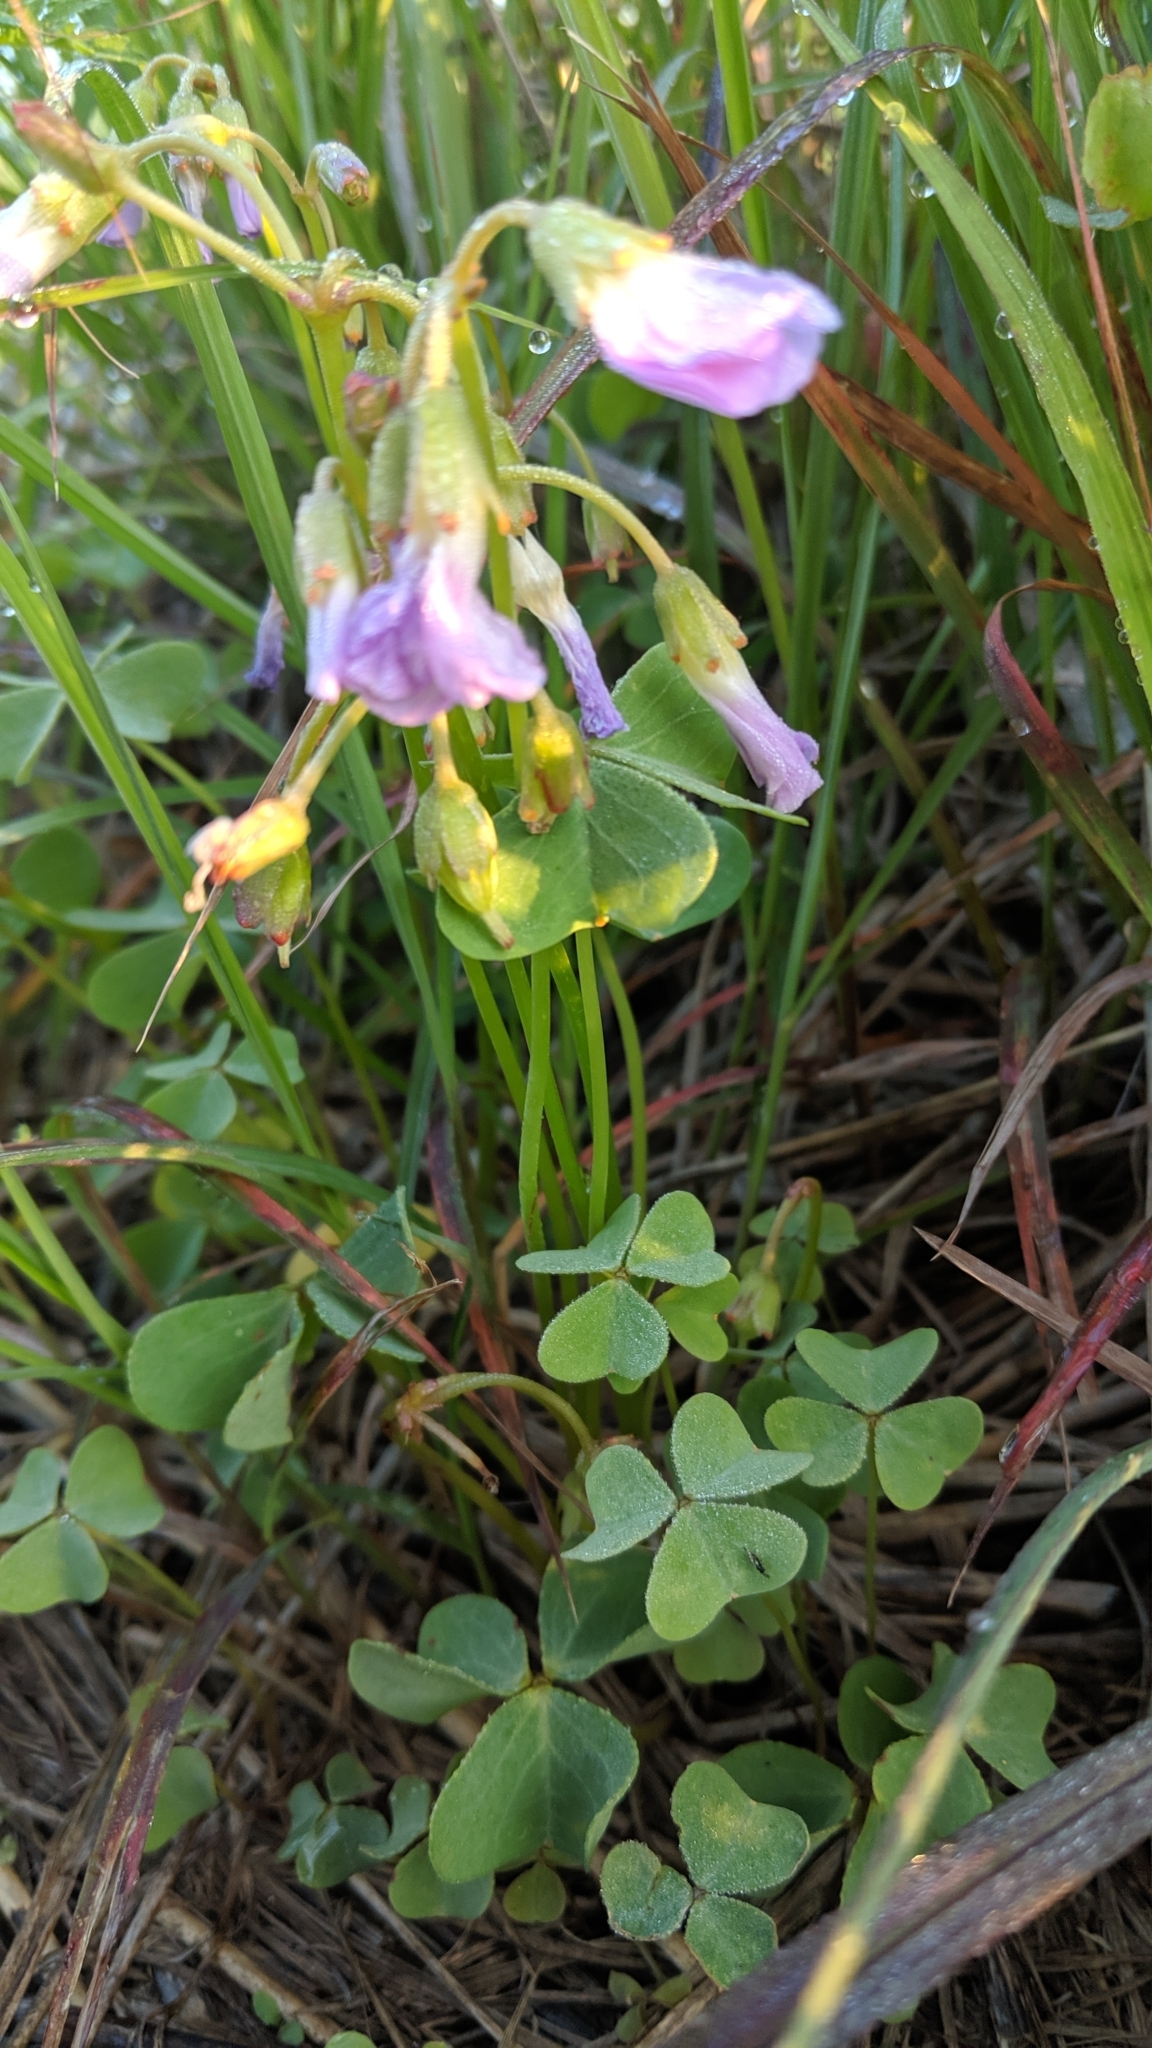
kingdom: Plantae
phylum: Tracheophyta
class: Magnoliopsida
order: Oxalidales
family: Oxalidaceae
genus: Oxalis
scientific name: Oxalis violacea
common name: Violet wood-sorrel
